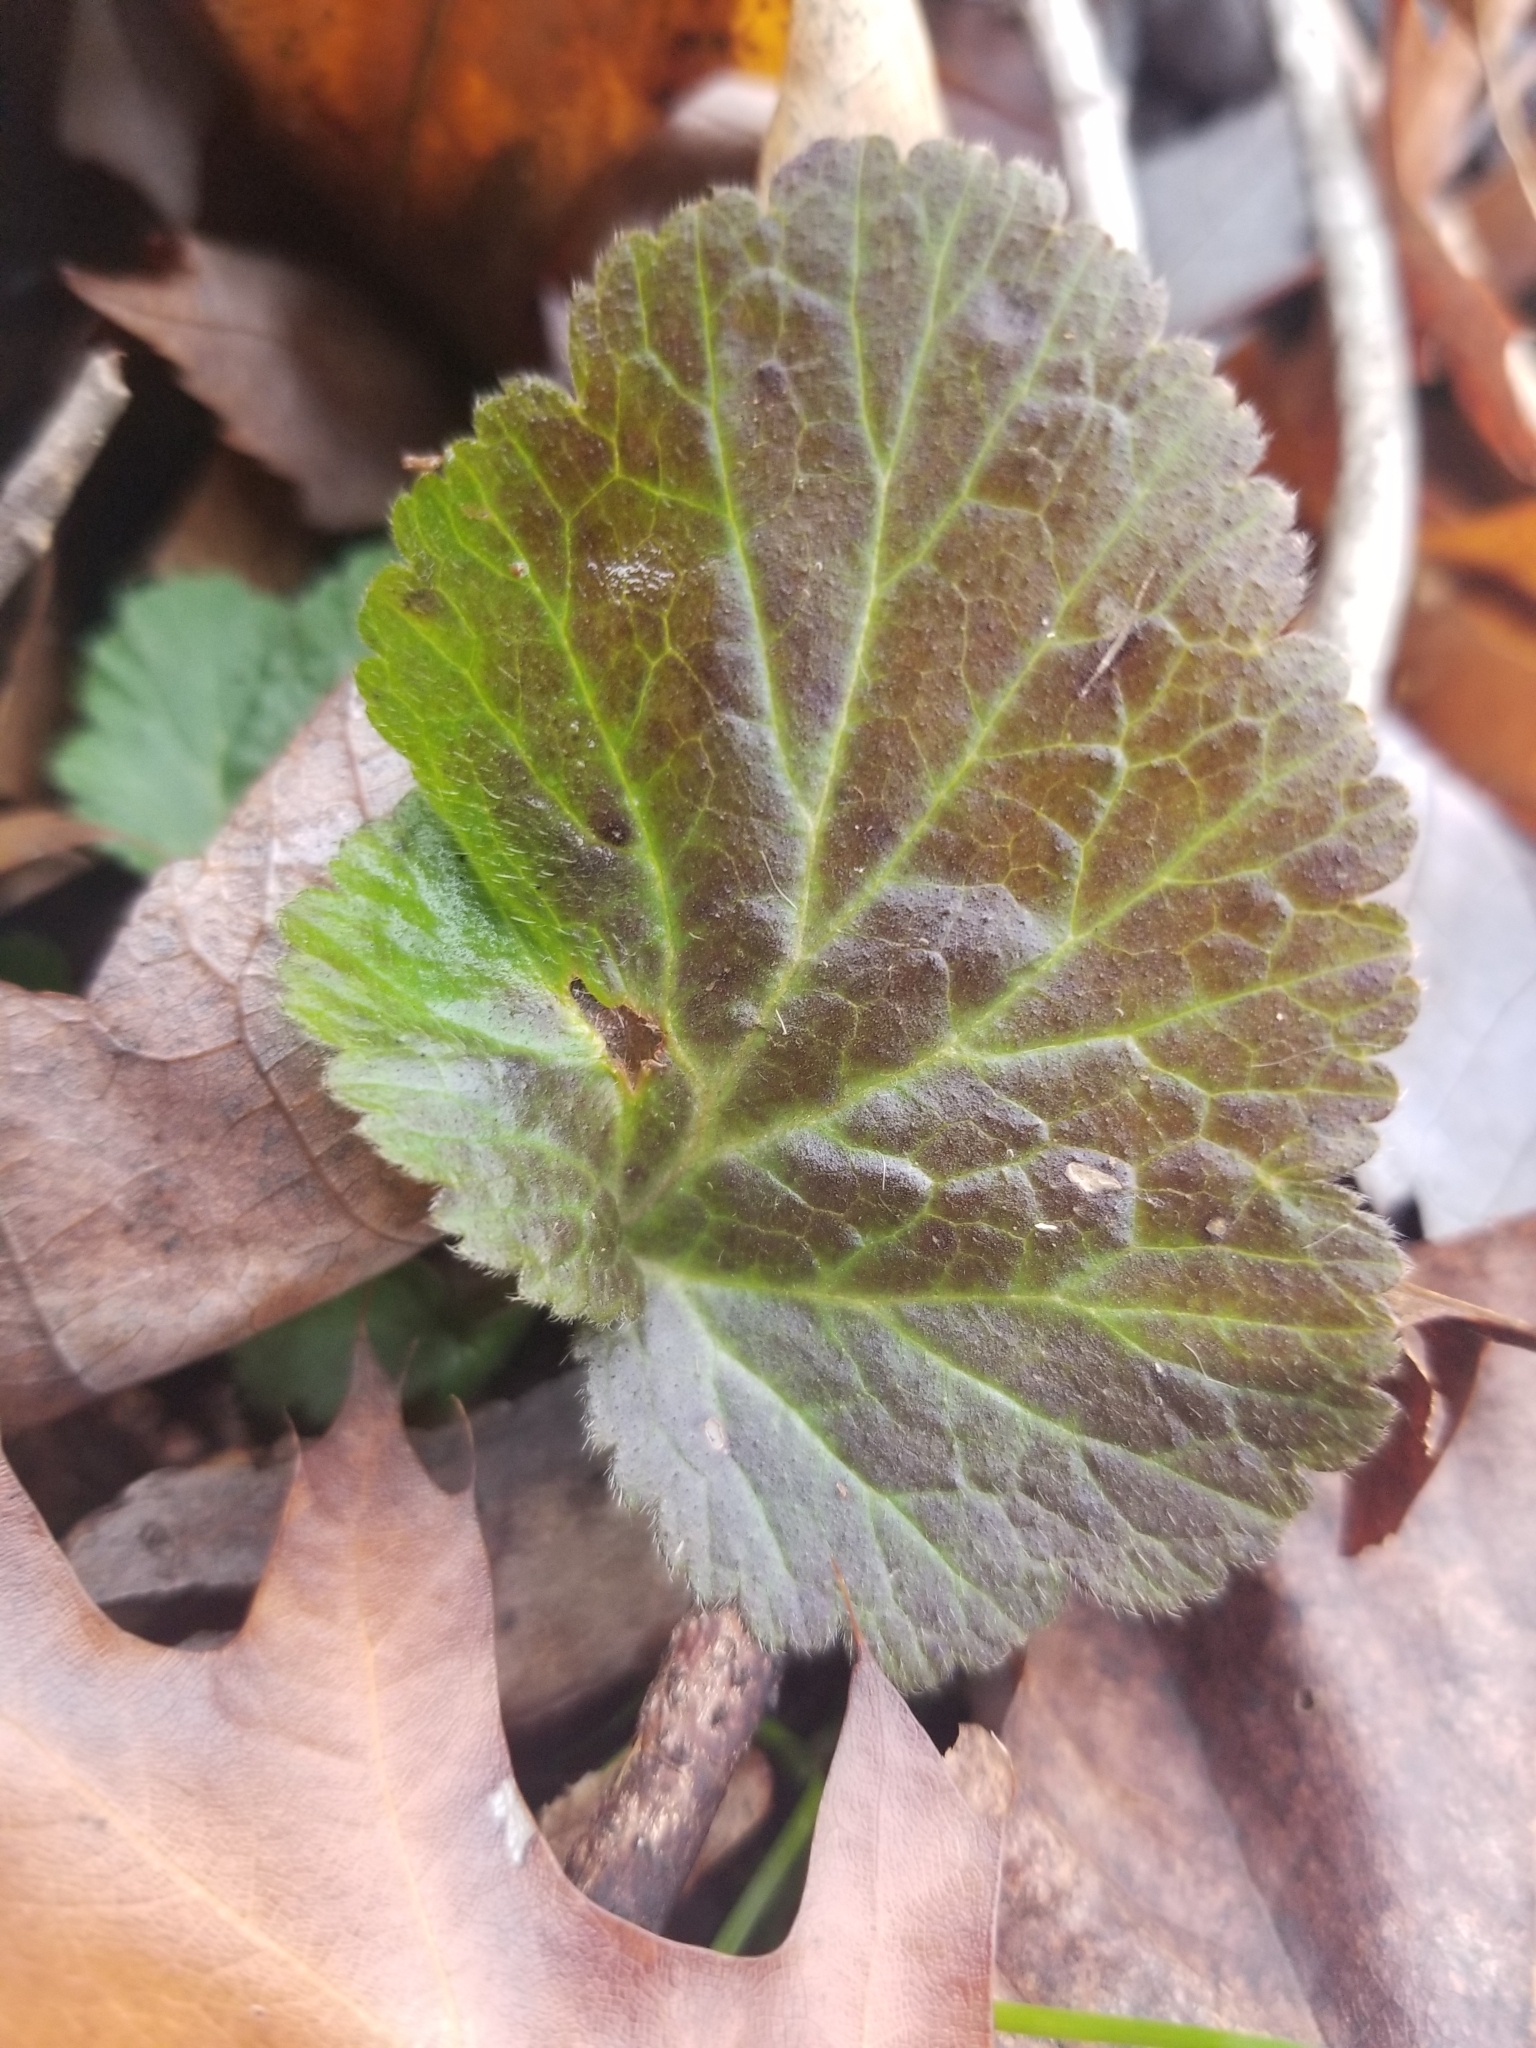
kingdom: Plantae
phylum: Tracheophyta
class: Magnoliopsida
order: Brassicales
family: Brassicaceae
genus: Alliaria
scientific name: Alliaria petiolata
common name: Garlic mustard
